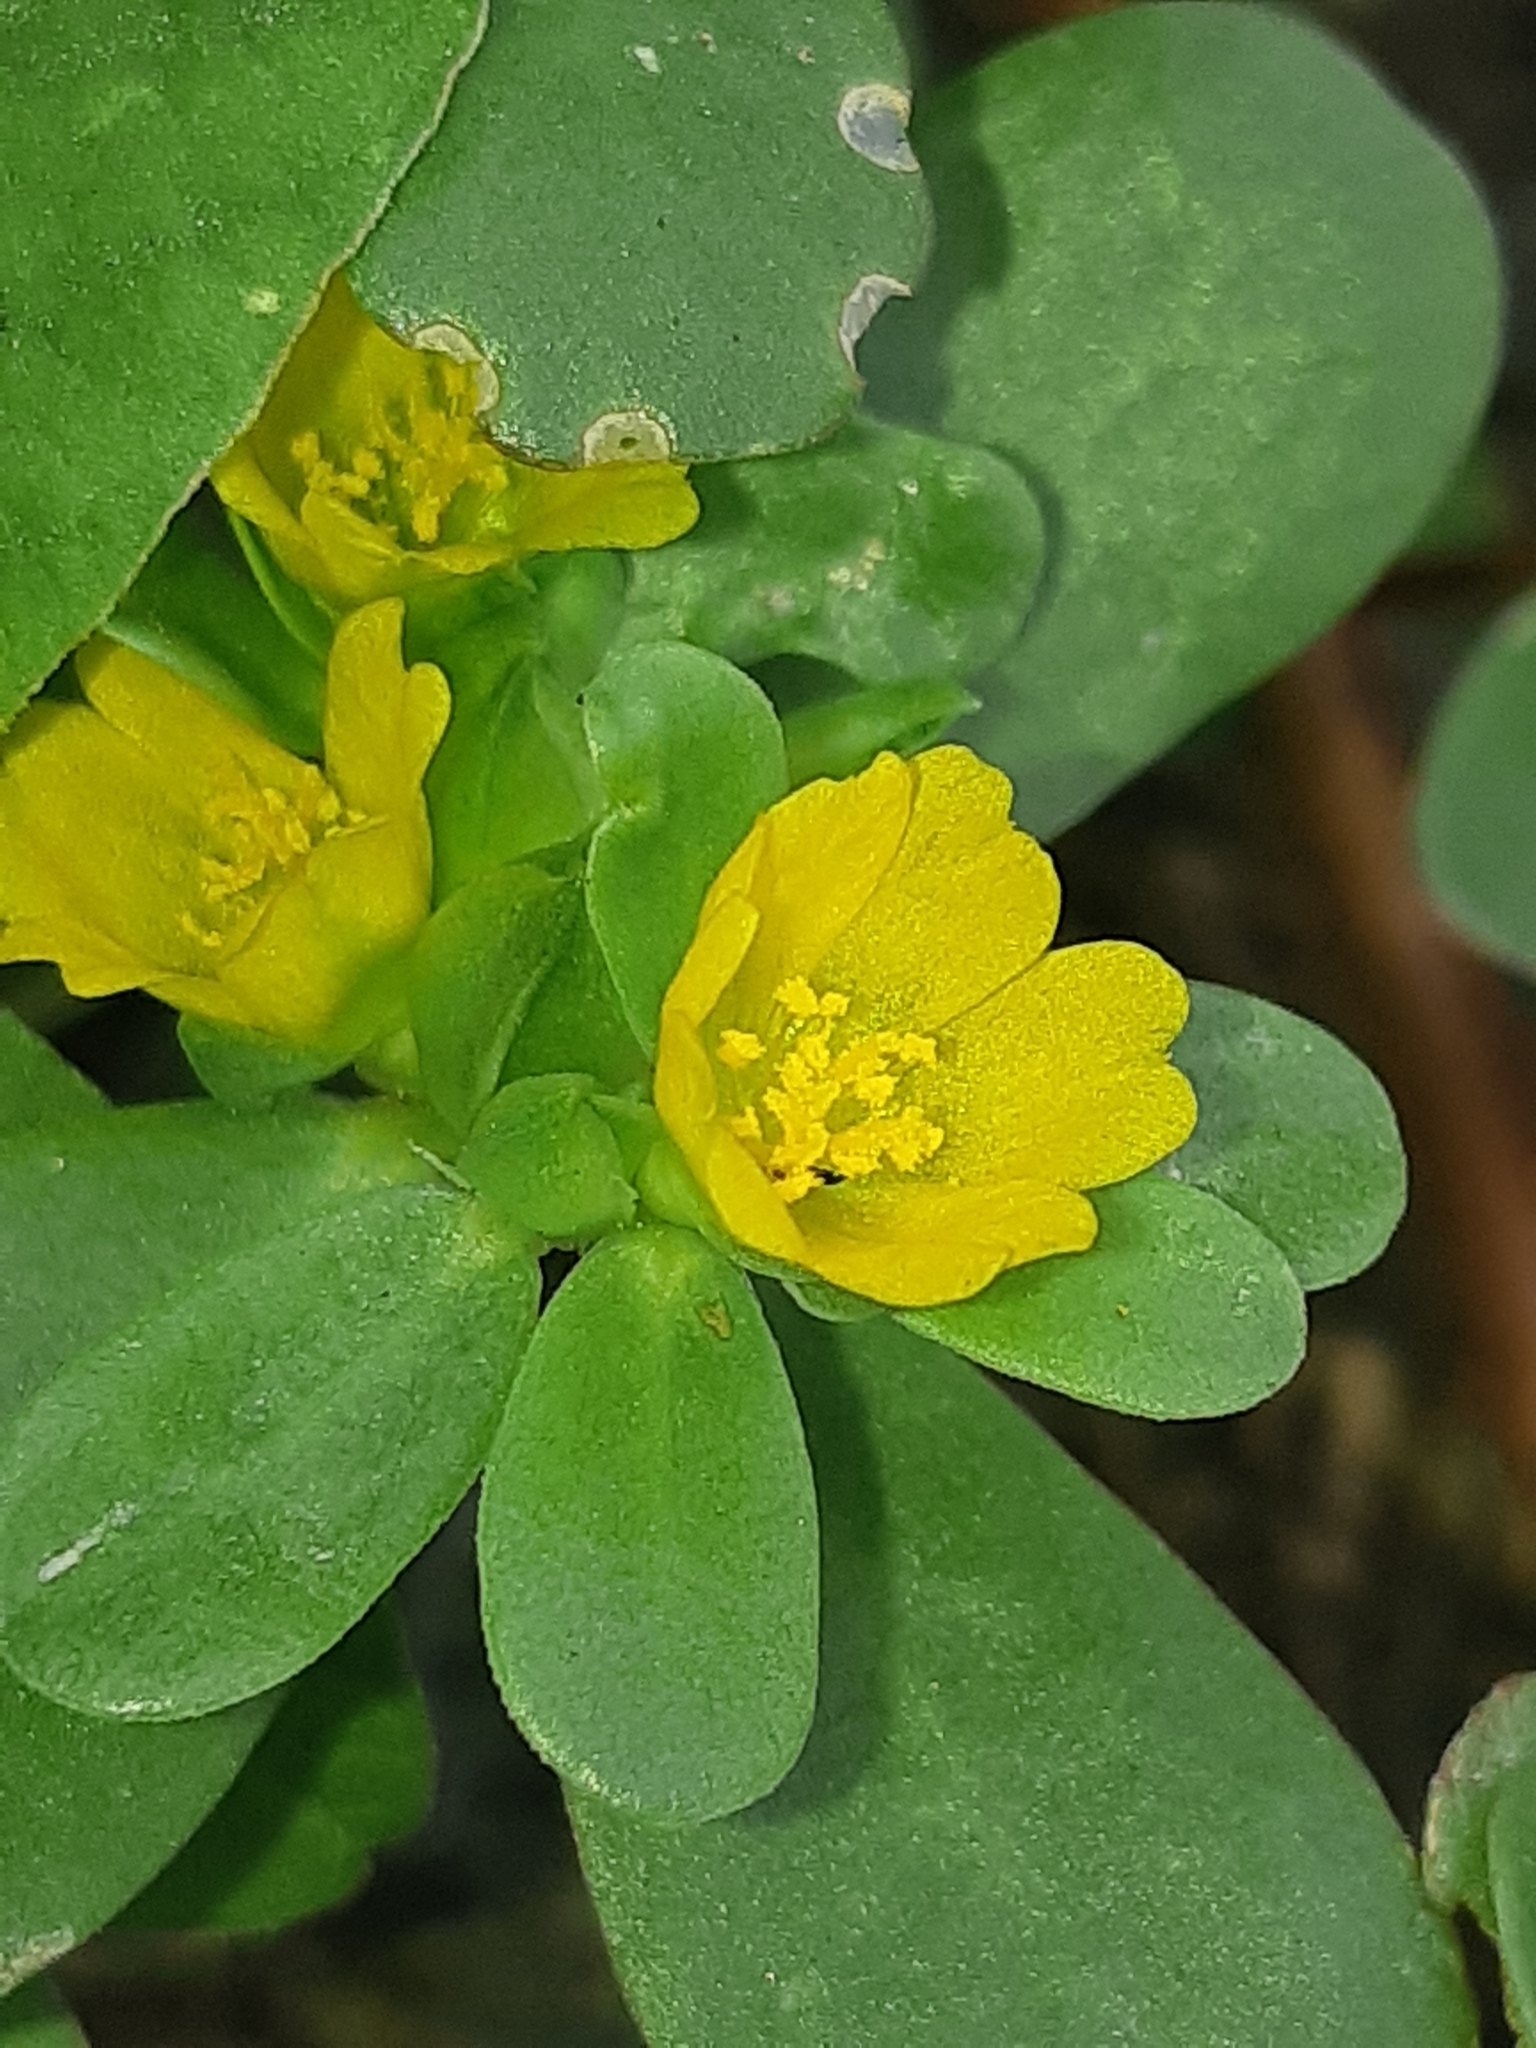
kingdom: Plantae
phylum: Tracheophyta
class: Magnoliopsida
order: Caryophyllales
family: Portulacaceae
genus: Portulaca
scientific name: Portulaca oleracea
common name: Common purslane
